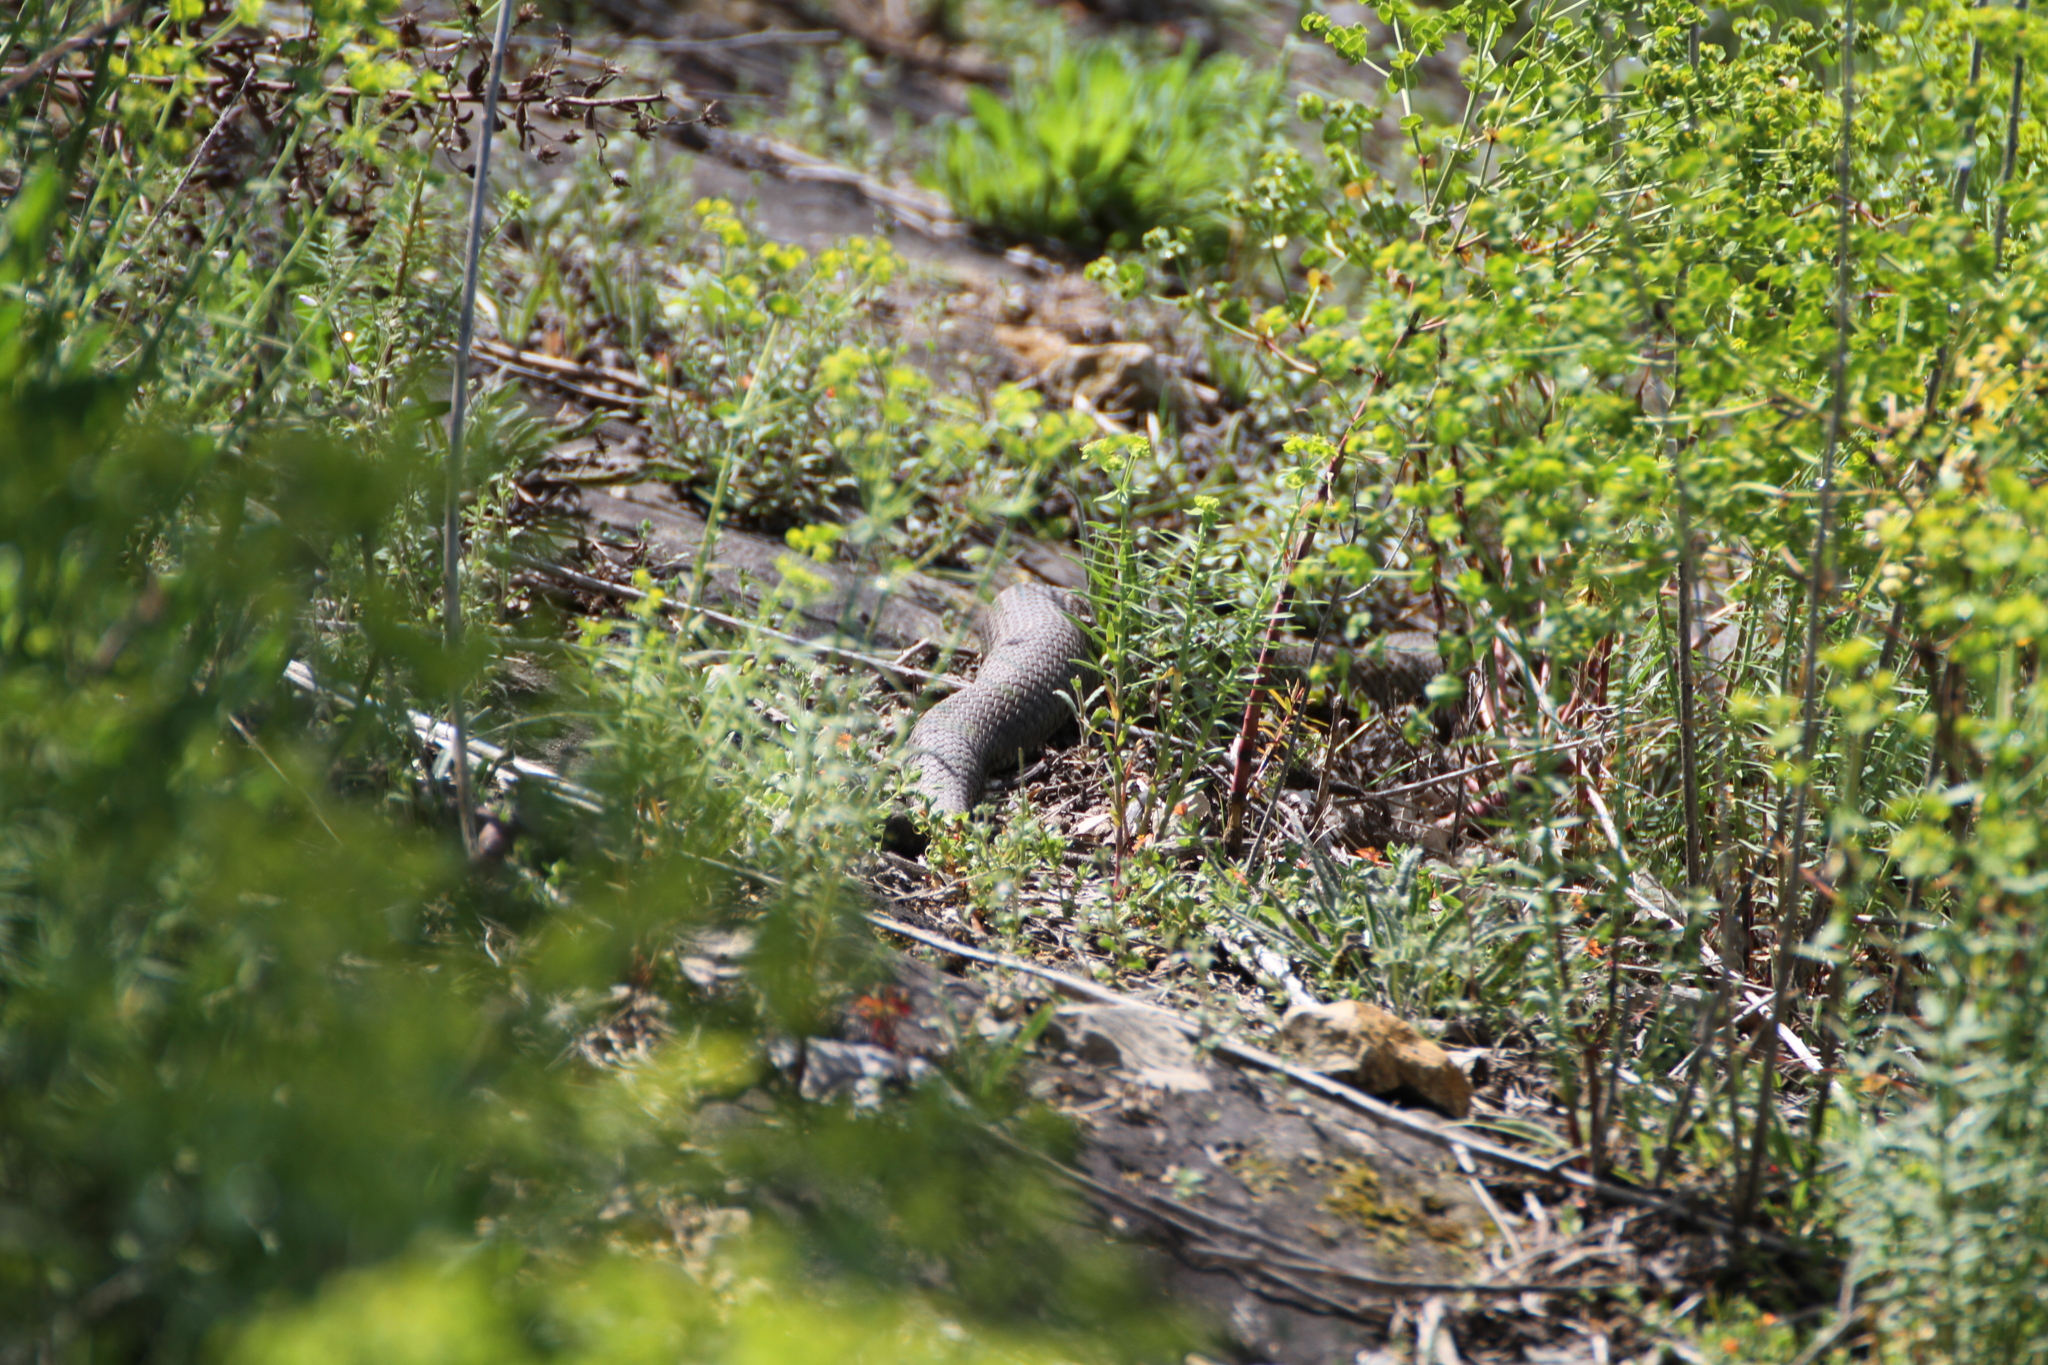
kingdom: Animalia
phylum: Chordata
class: Squamata
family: Psammophiidae
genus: Malpolon
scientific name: Malpolon monspessulanus
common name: Montpellier snake
